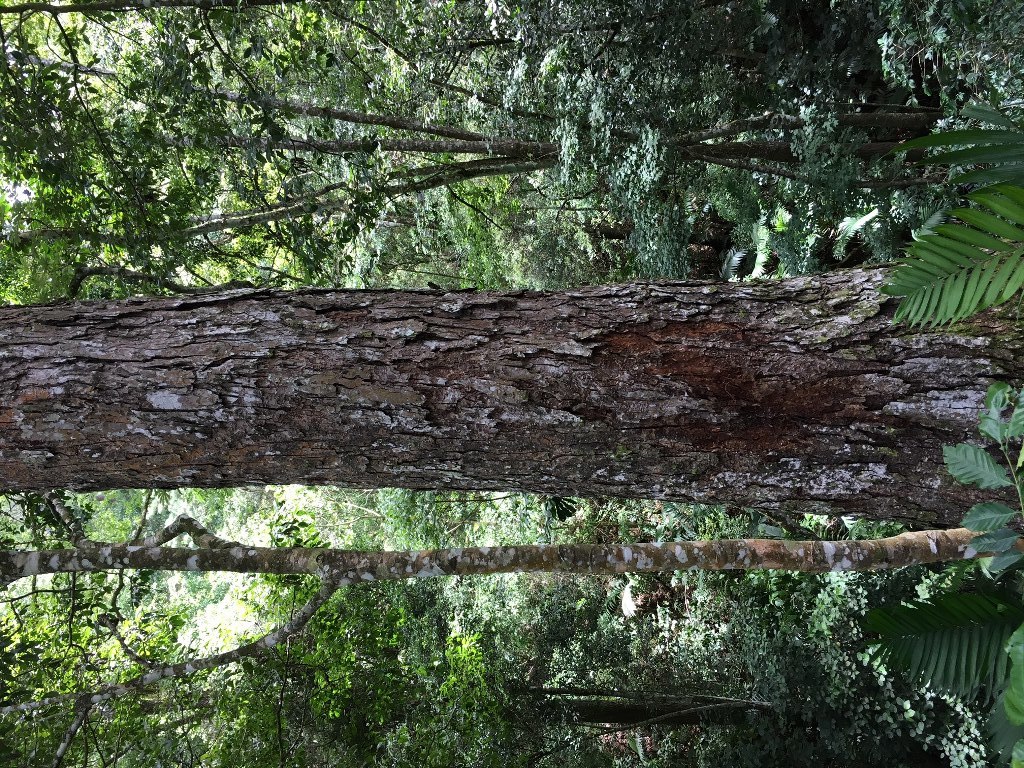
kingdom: Plantae
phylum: Tracheophyta
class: Magnoliopsida
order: Rosales
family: Ulmaceae
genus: Ulmus
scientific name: Ulmus mexicana
